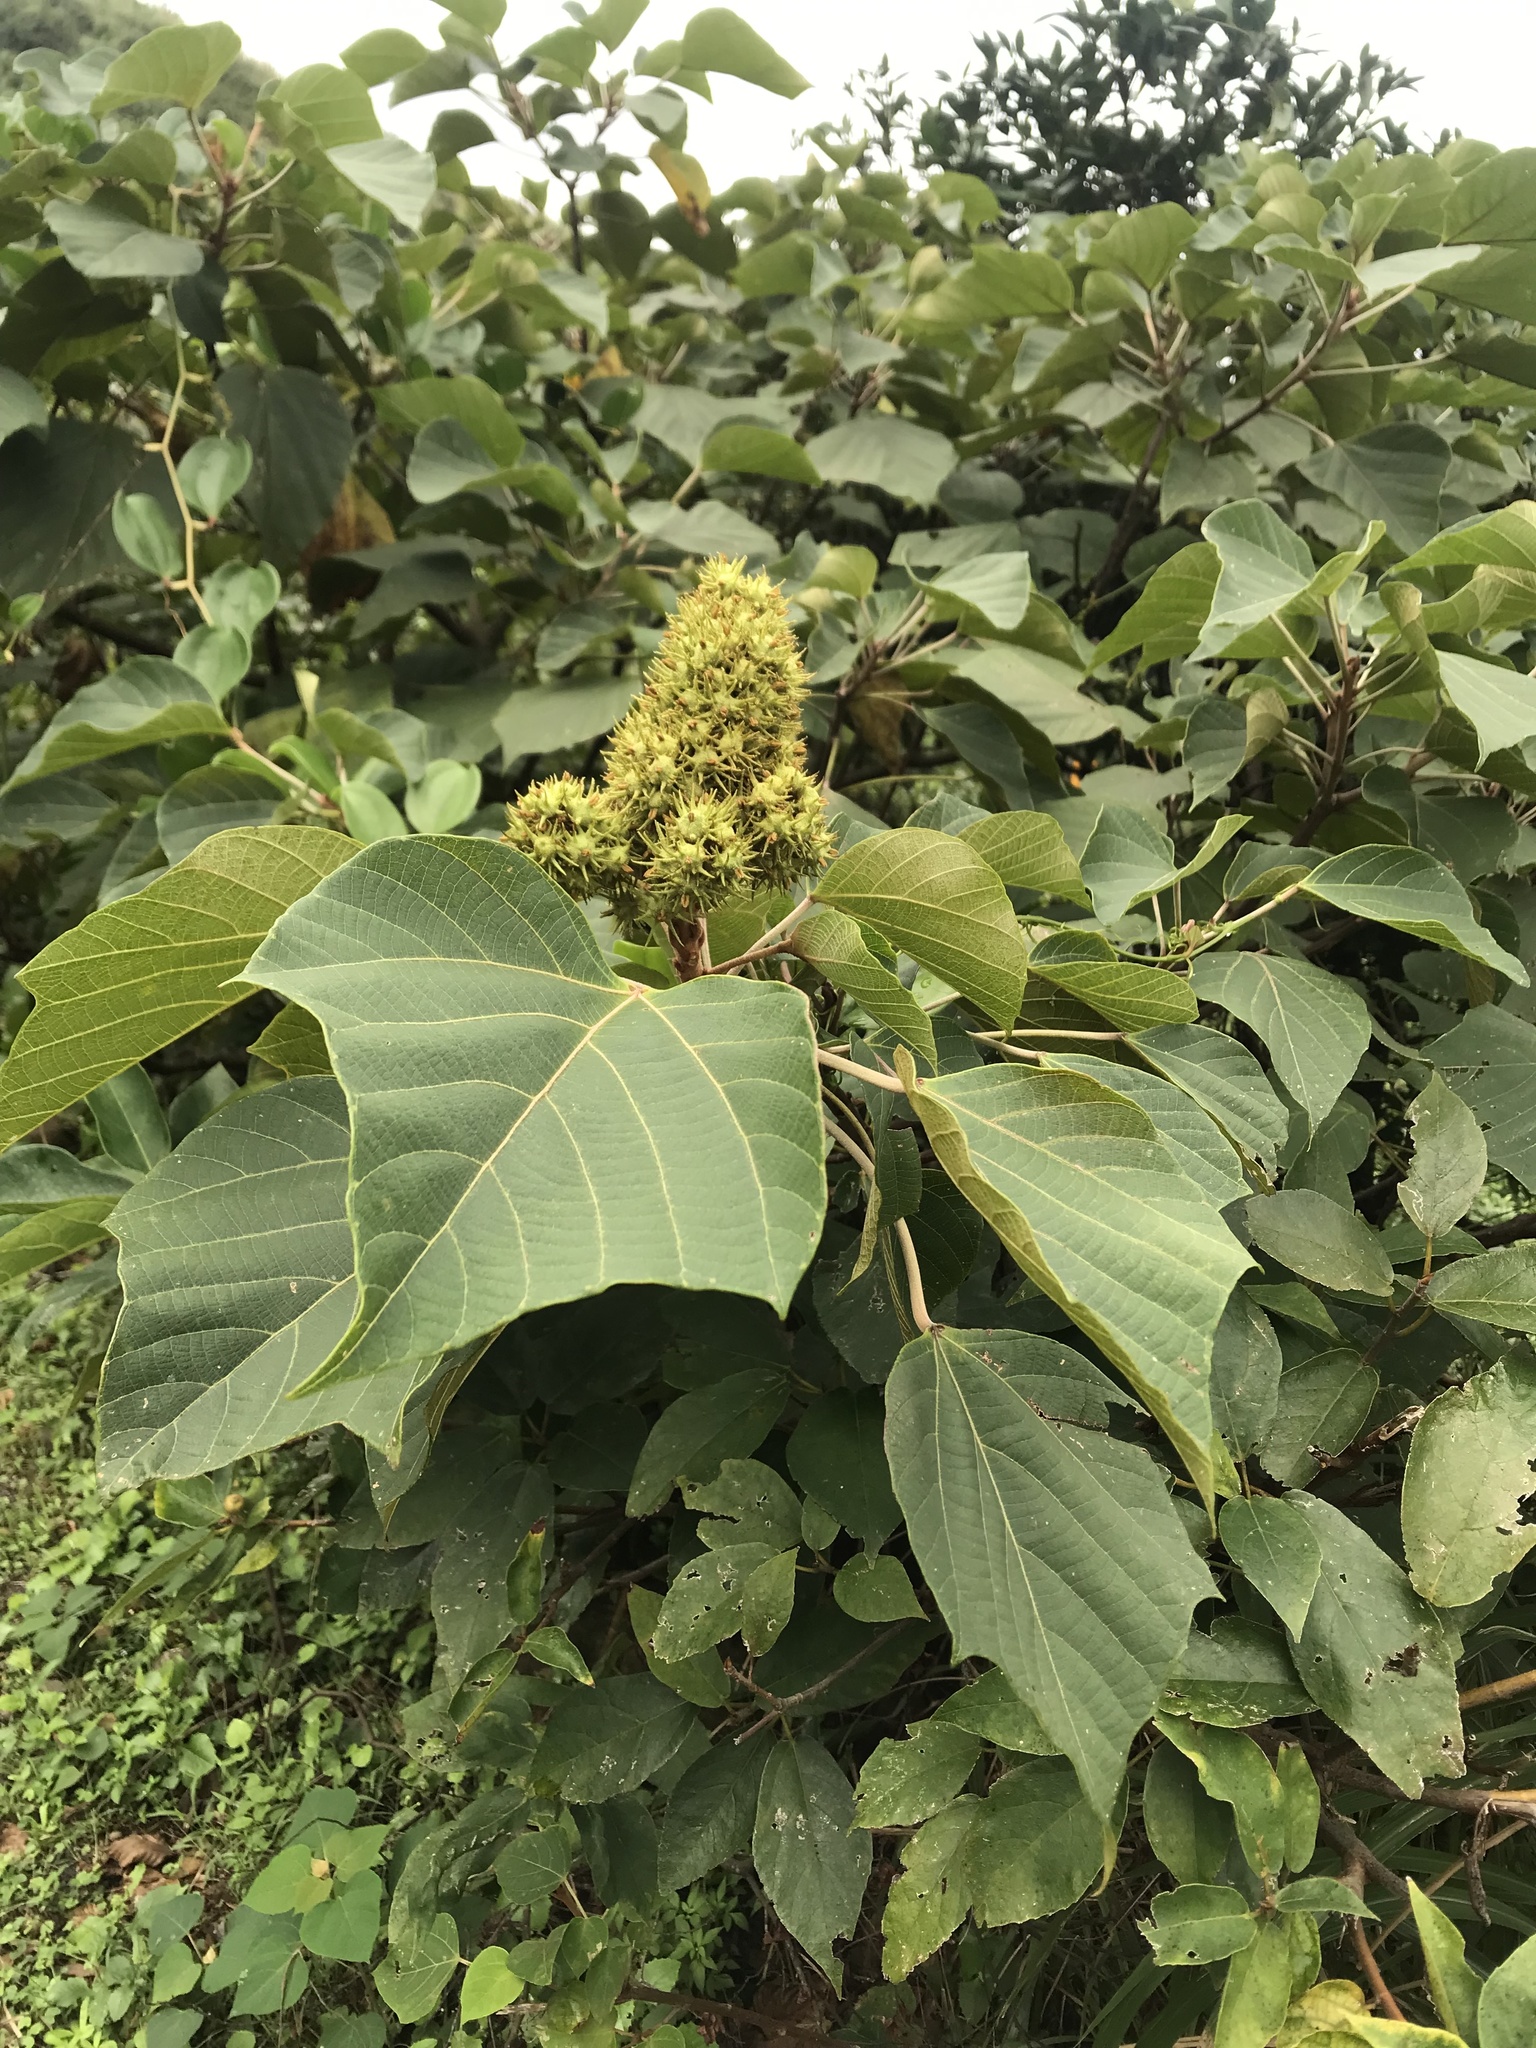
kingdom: Plantae
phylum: Tracheophyta
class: Magnoliopsida
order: Malpighiales
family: Euphorbiaceae
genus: Mallotus
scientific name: Mallotus japonicus
